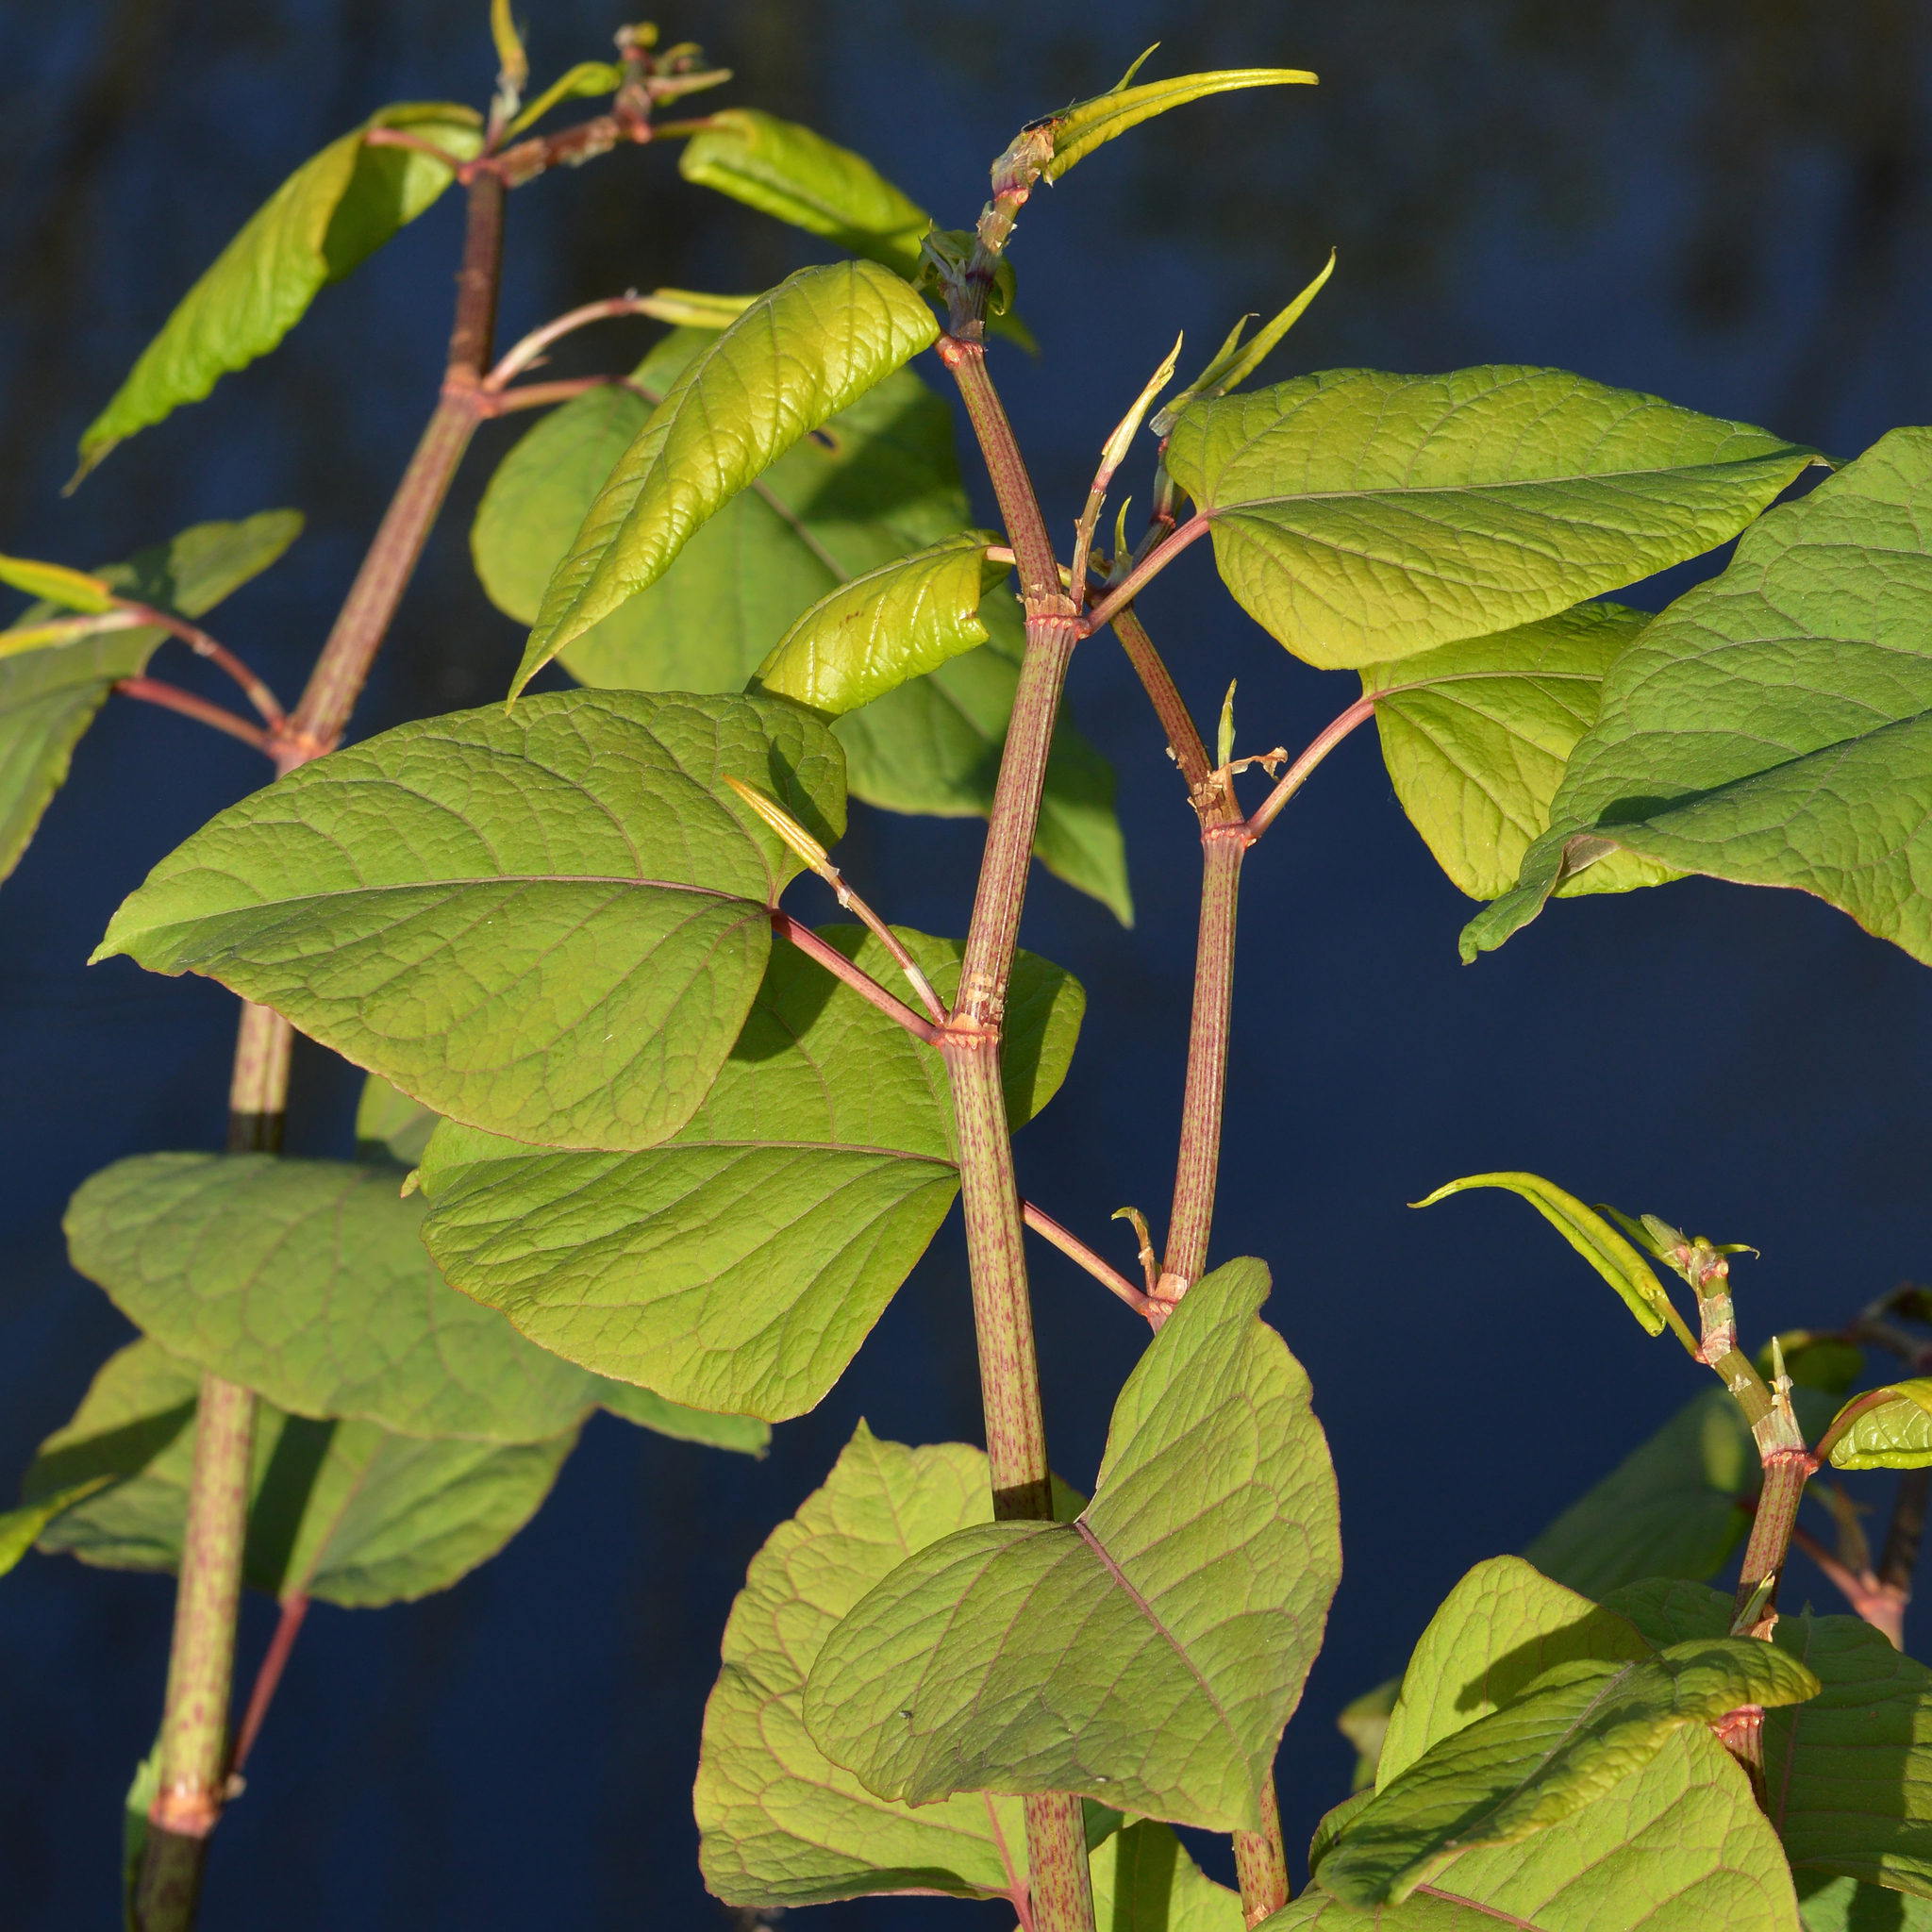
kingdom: Plantae
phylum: Tracheophyta
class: Magnoliopsida
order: Caryophyllales
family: Polygonaceae
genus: Reynoutria
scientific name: Reynoutria japonica
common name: Japanese knotweed
